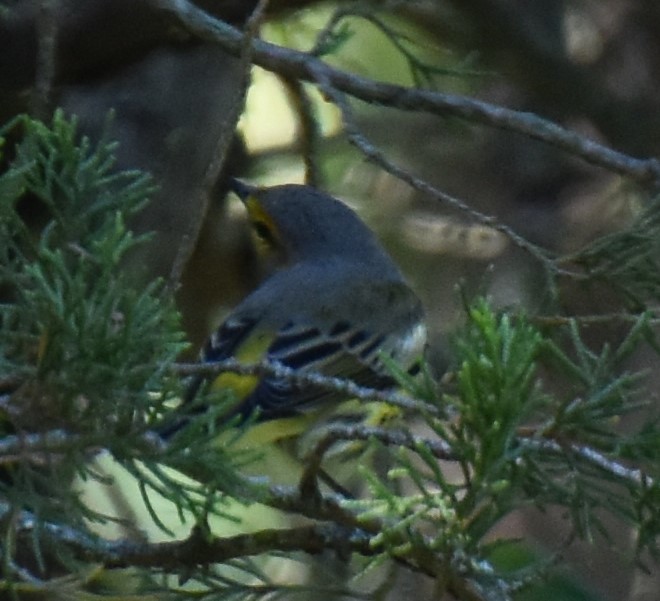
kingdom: Animalia
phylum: Chordata
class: Aves
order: Passeriformes
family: Parulidae
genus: Setophaga
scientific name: Setophaga tigrina
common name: Cape may warbler
